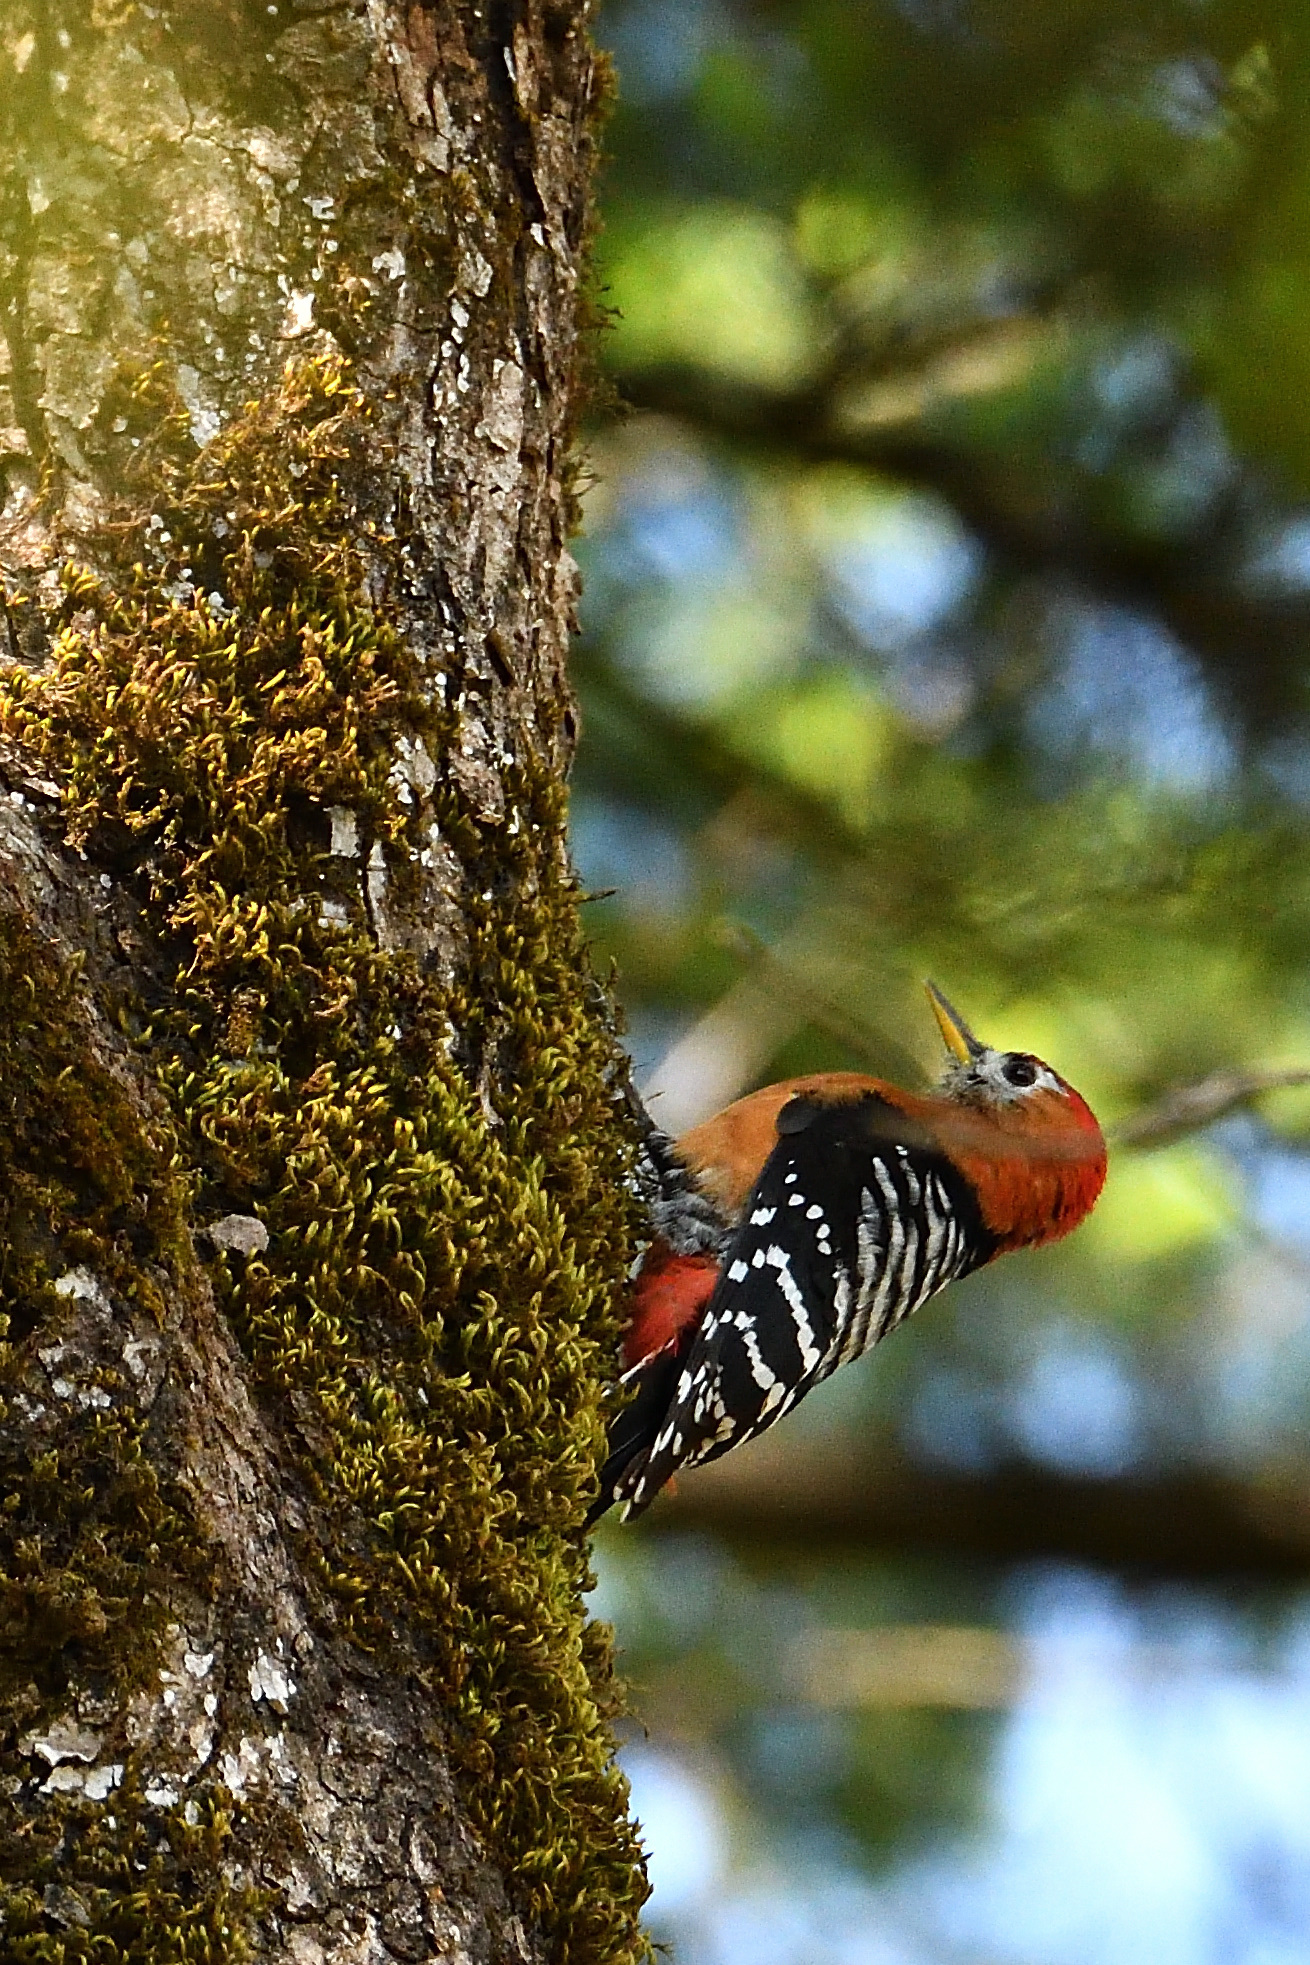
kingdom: Animalia
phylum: Chordata
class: Aves
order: Piciformes
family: Picidae
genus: Dendrocopos
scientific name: Dendrocopos hyperythrus
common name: Rufous-bellied woodpecker
